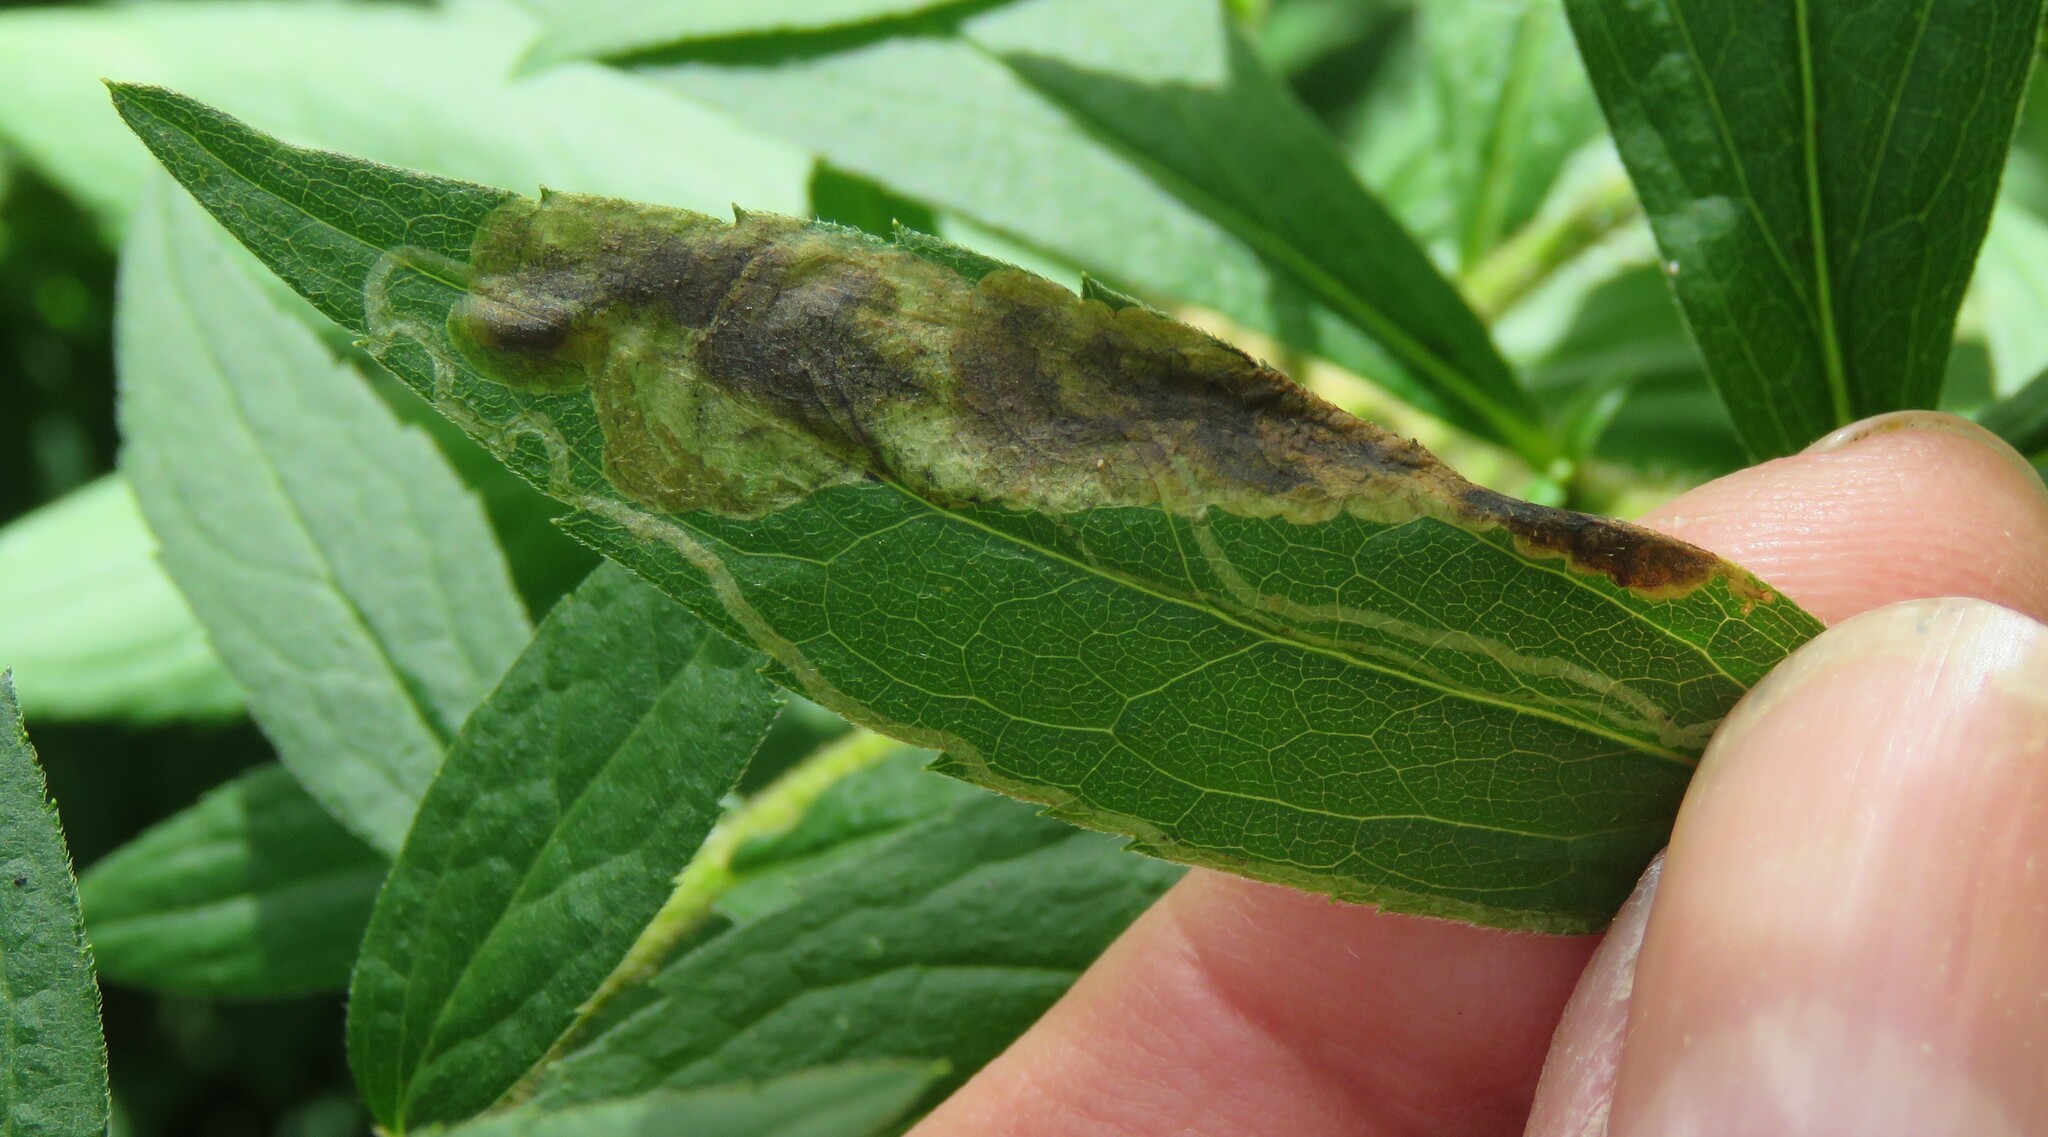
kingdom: Animalia
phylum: Arthropoda
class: Insecta
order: Diptera
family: Agromyzidae
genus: Nemorimyza
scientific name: Nemorimyza posticata
